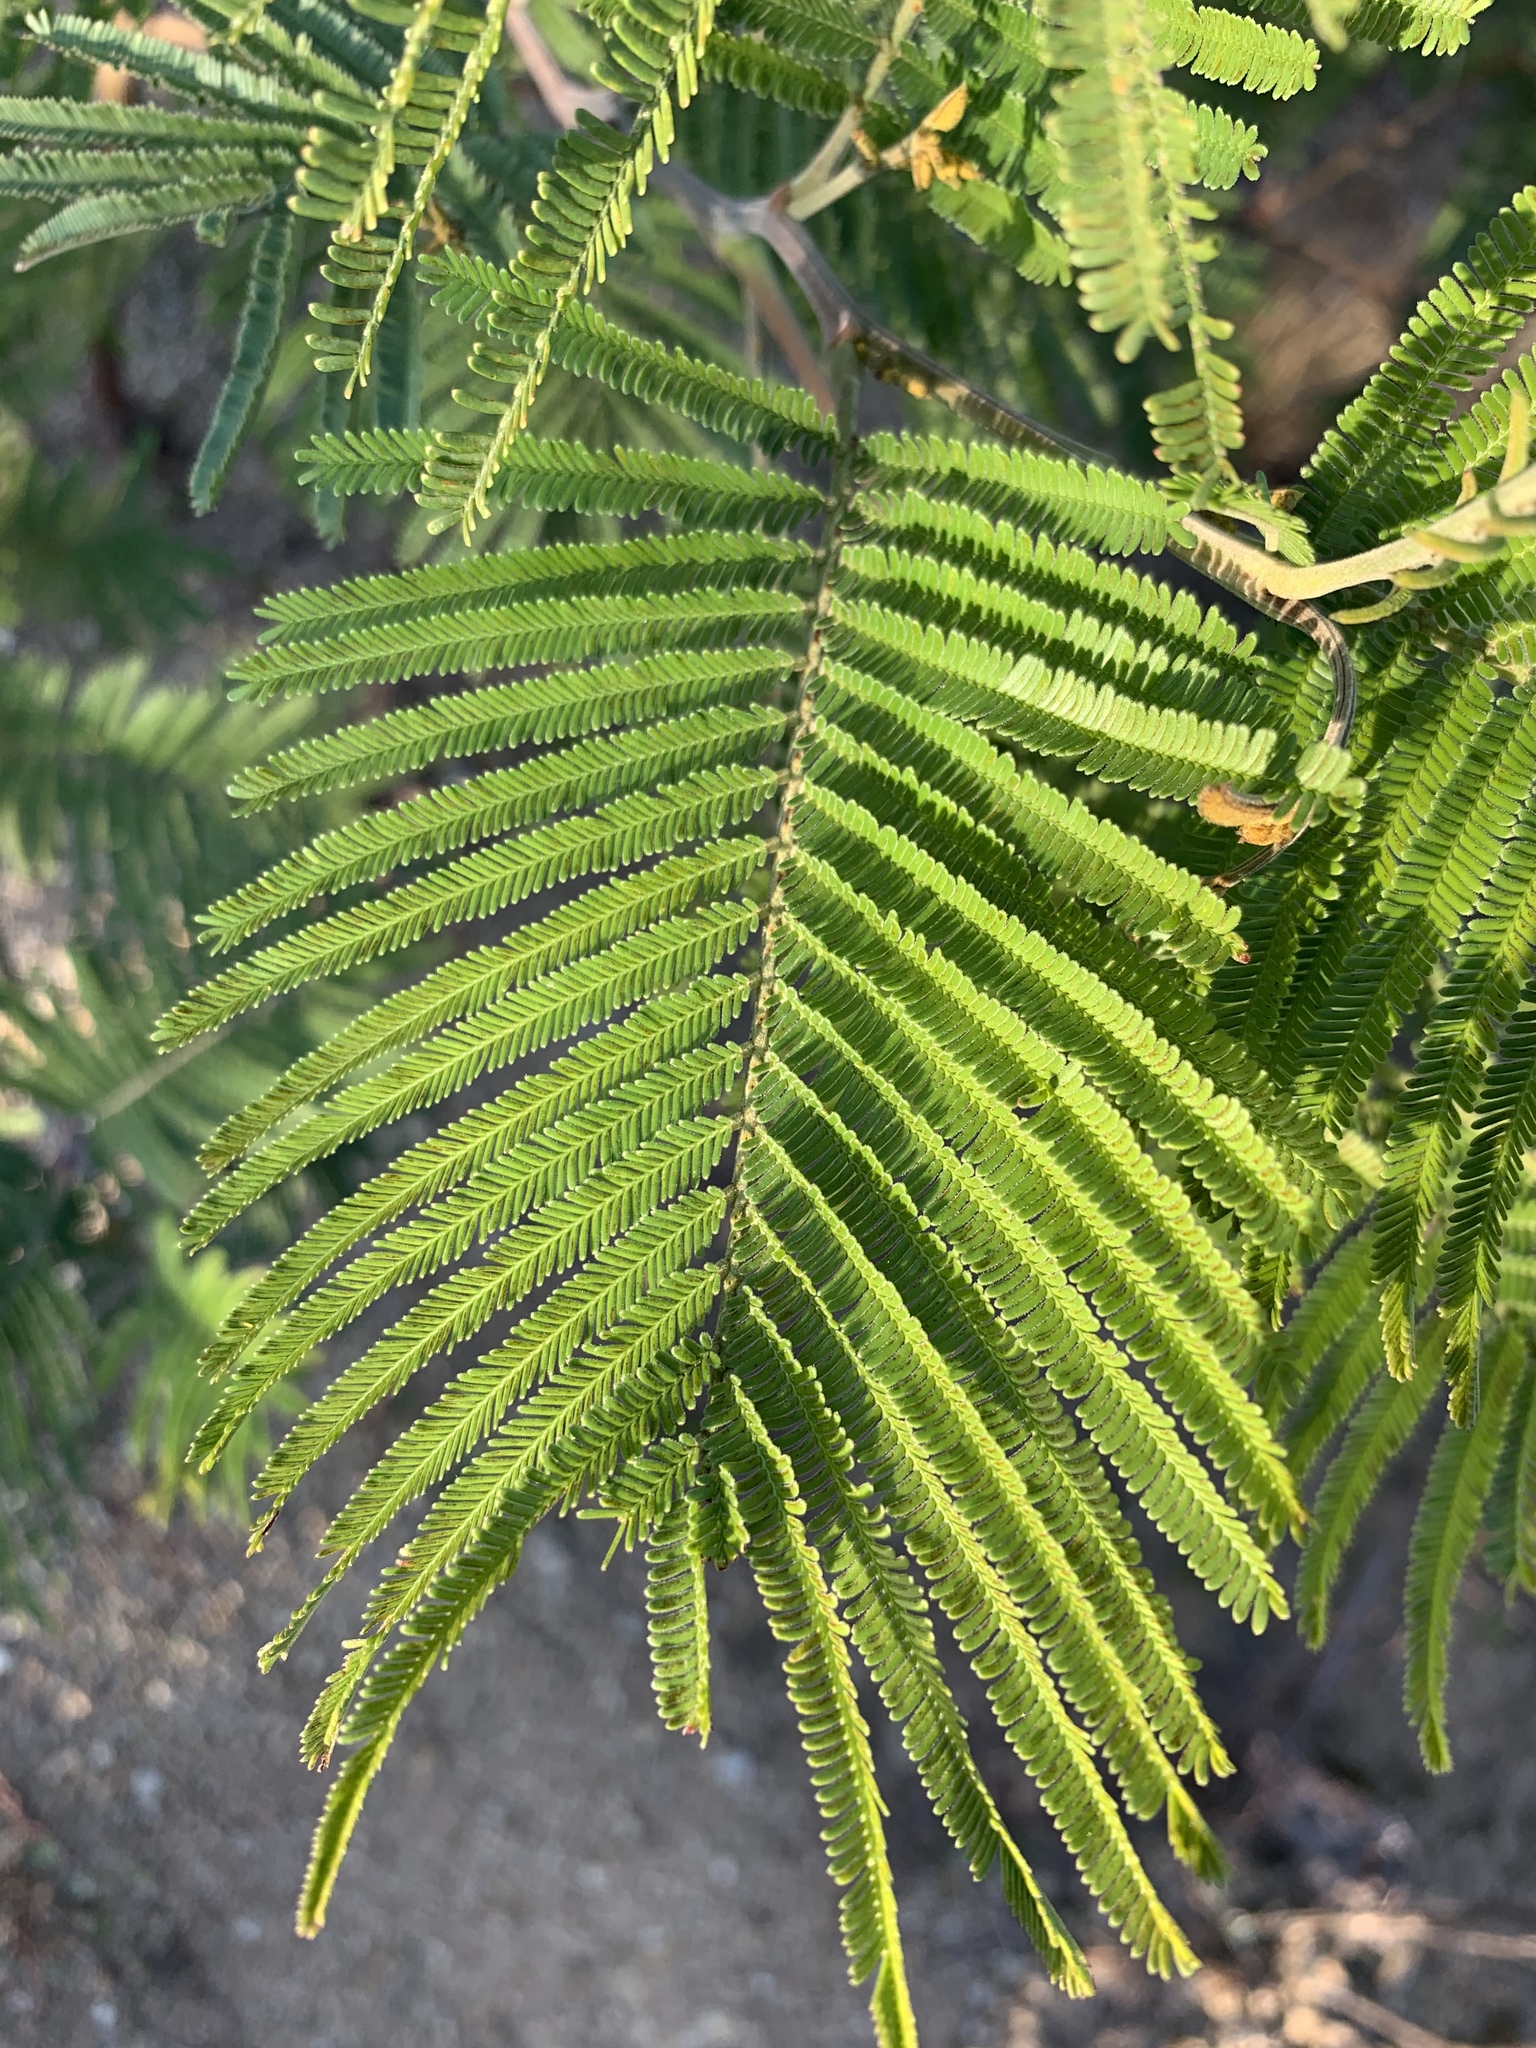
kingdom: Plantae
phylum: Tracheophyta
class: Magnoliopsida
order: Fabales
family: Fabaceae
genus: Acacia
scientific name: Acacia mearnsii
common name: Black wattle
